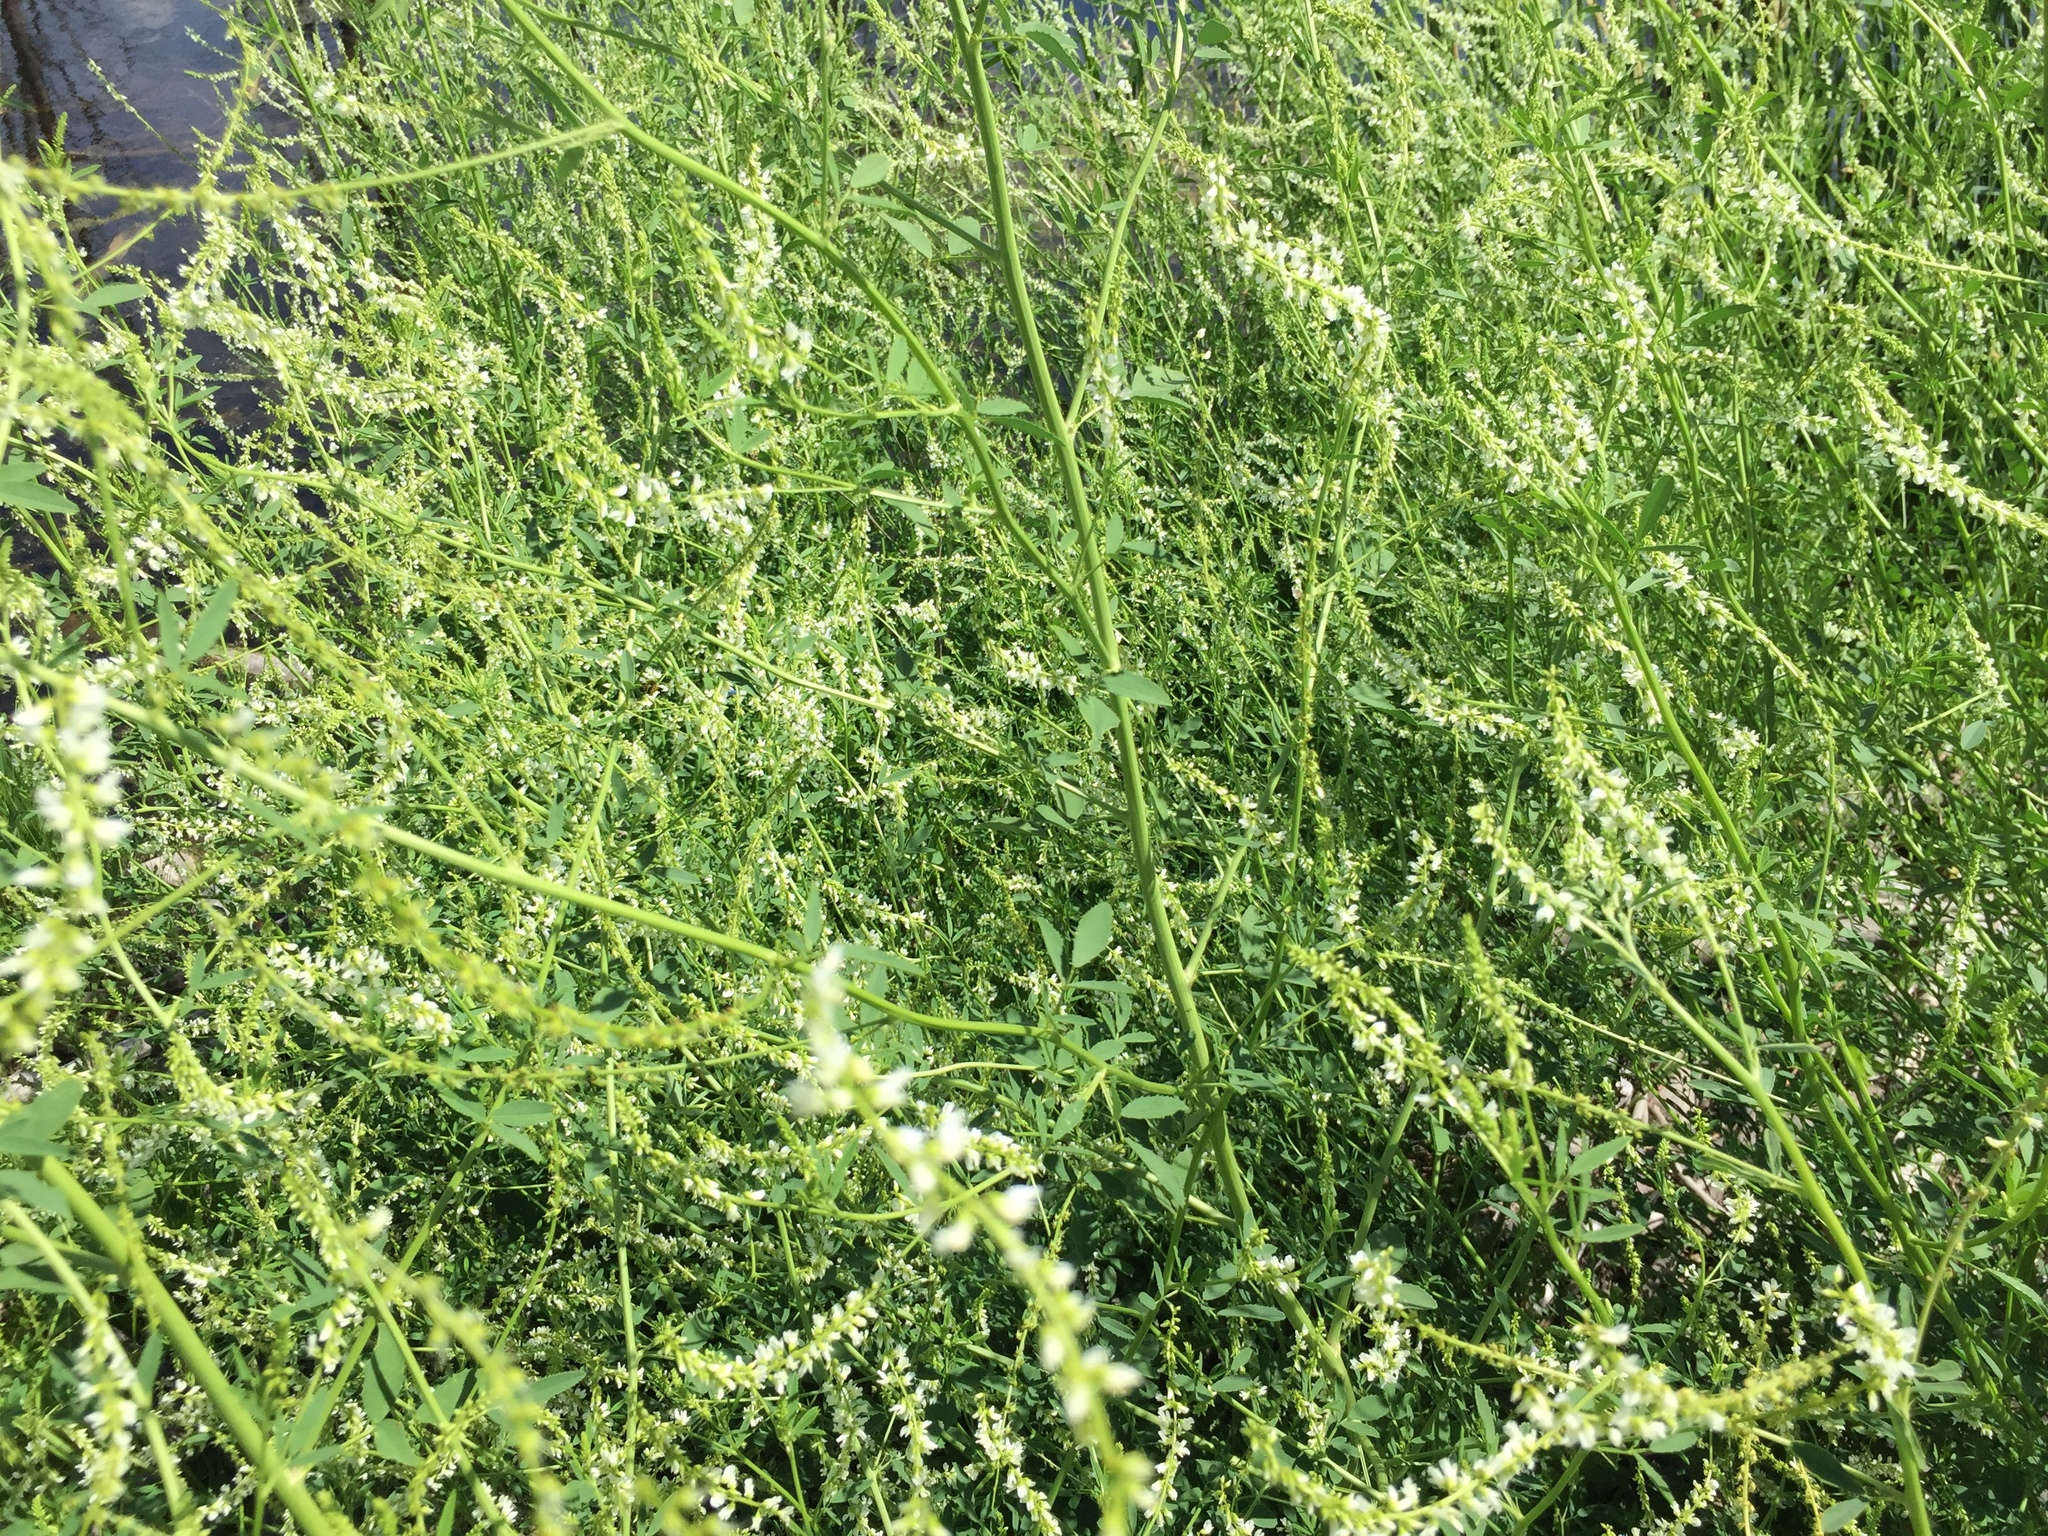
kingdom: Plantae
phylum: Tracheophyta
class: Magnoliopsida
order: Fabales
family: Fabaceae
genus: Melilotus
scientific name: Melilotus albus
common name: White melilot
